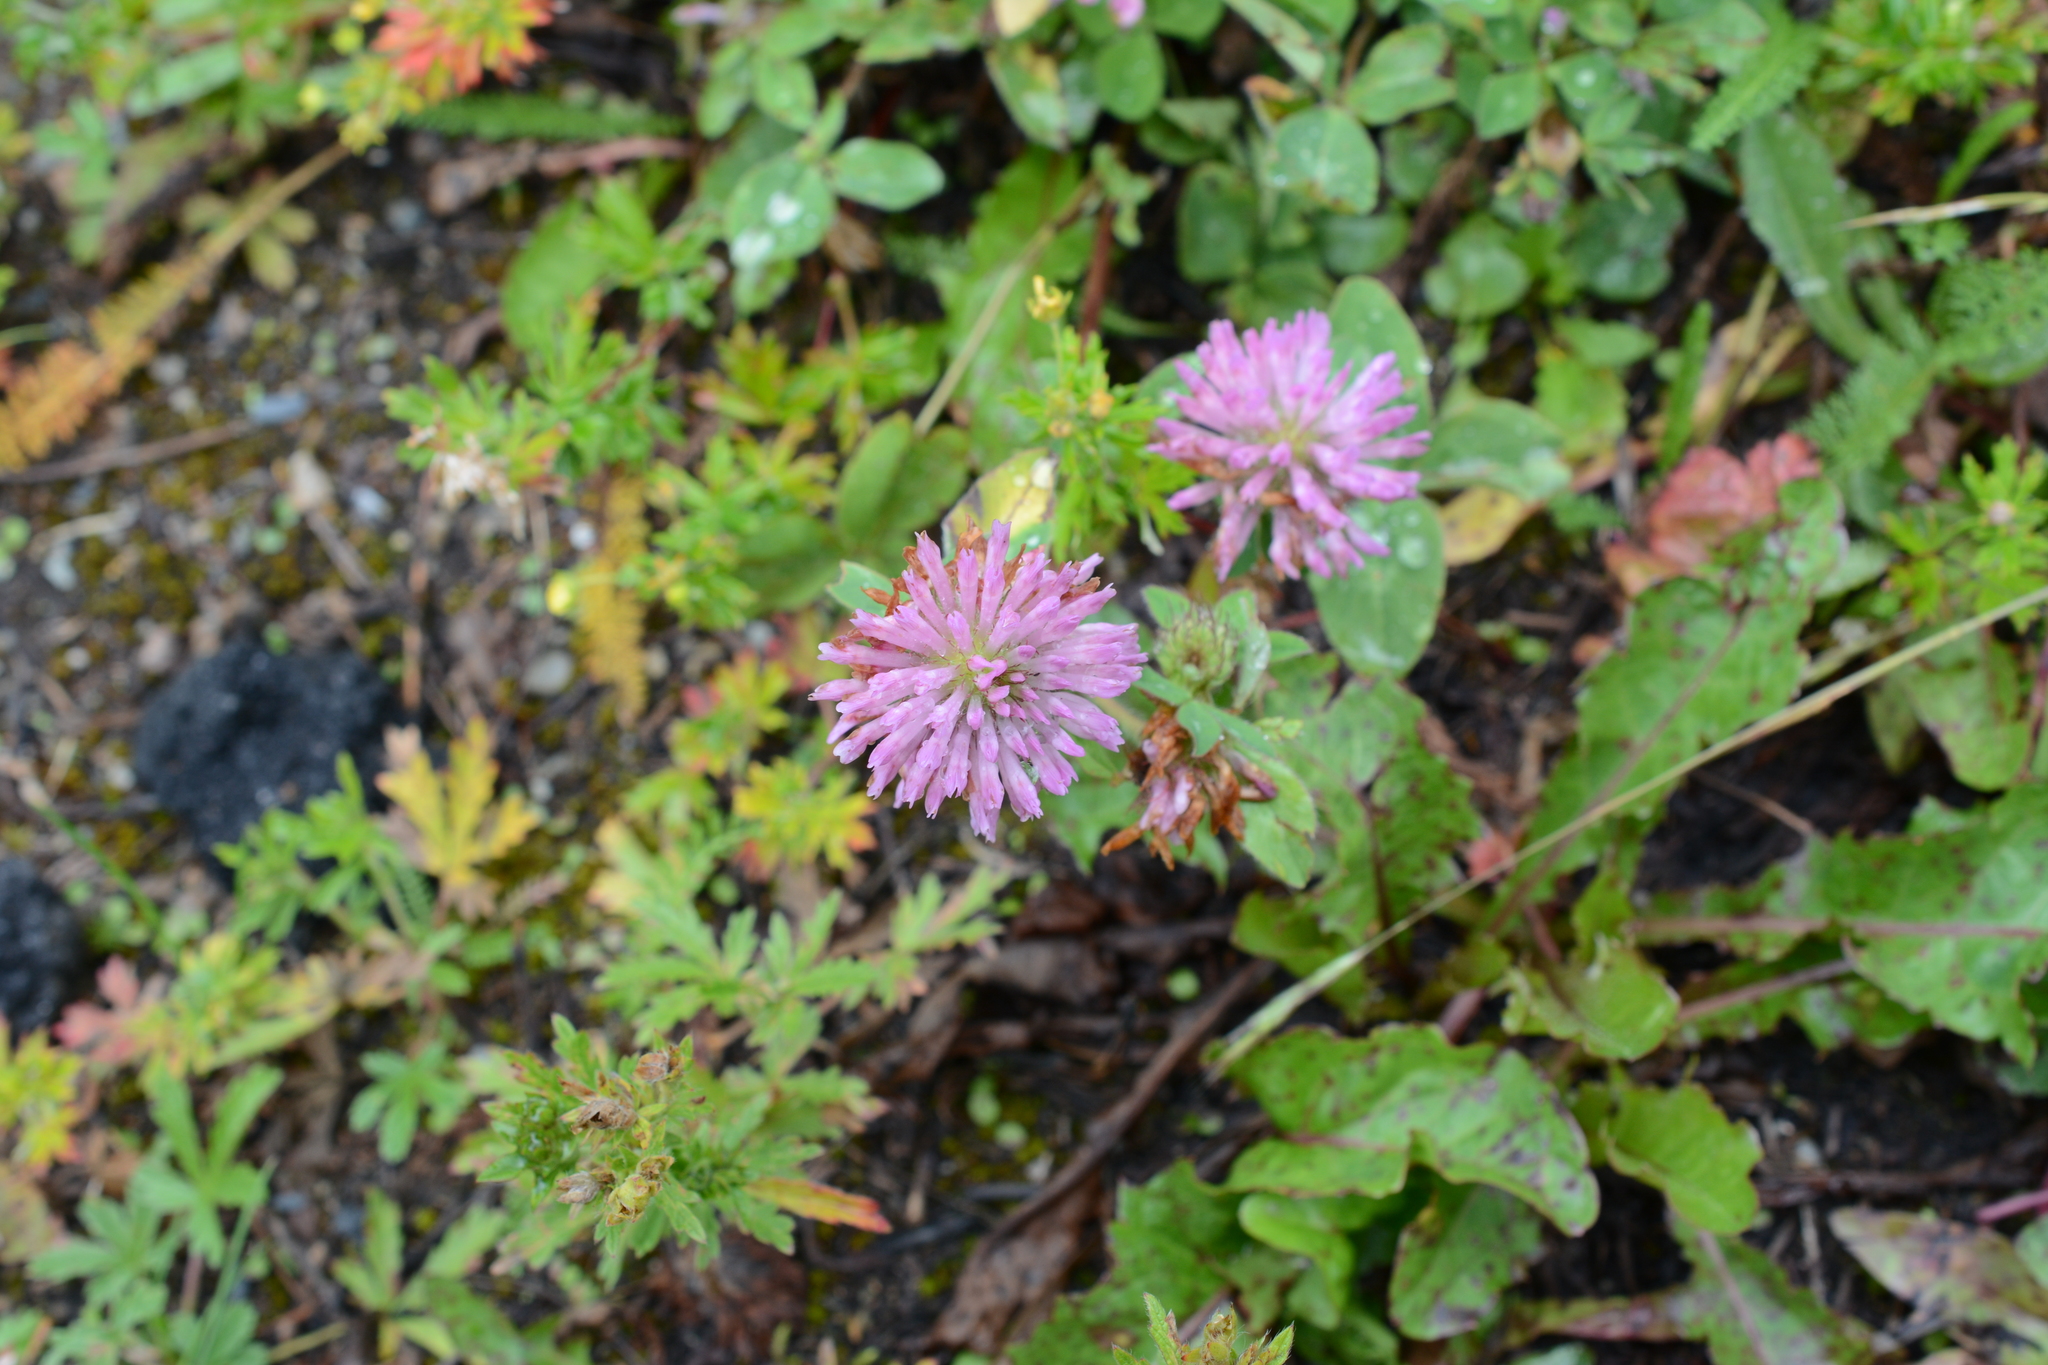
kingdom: Plantae
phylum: Tracheophyta
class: Magnoliopsida
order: Fabales
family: Fabaceae
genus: Trifolium
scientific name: Trifolium pratense
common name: Red clover
